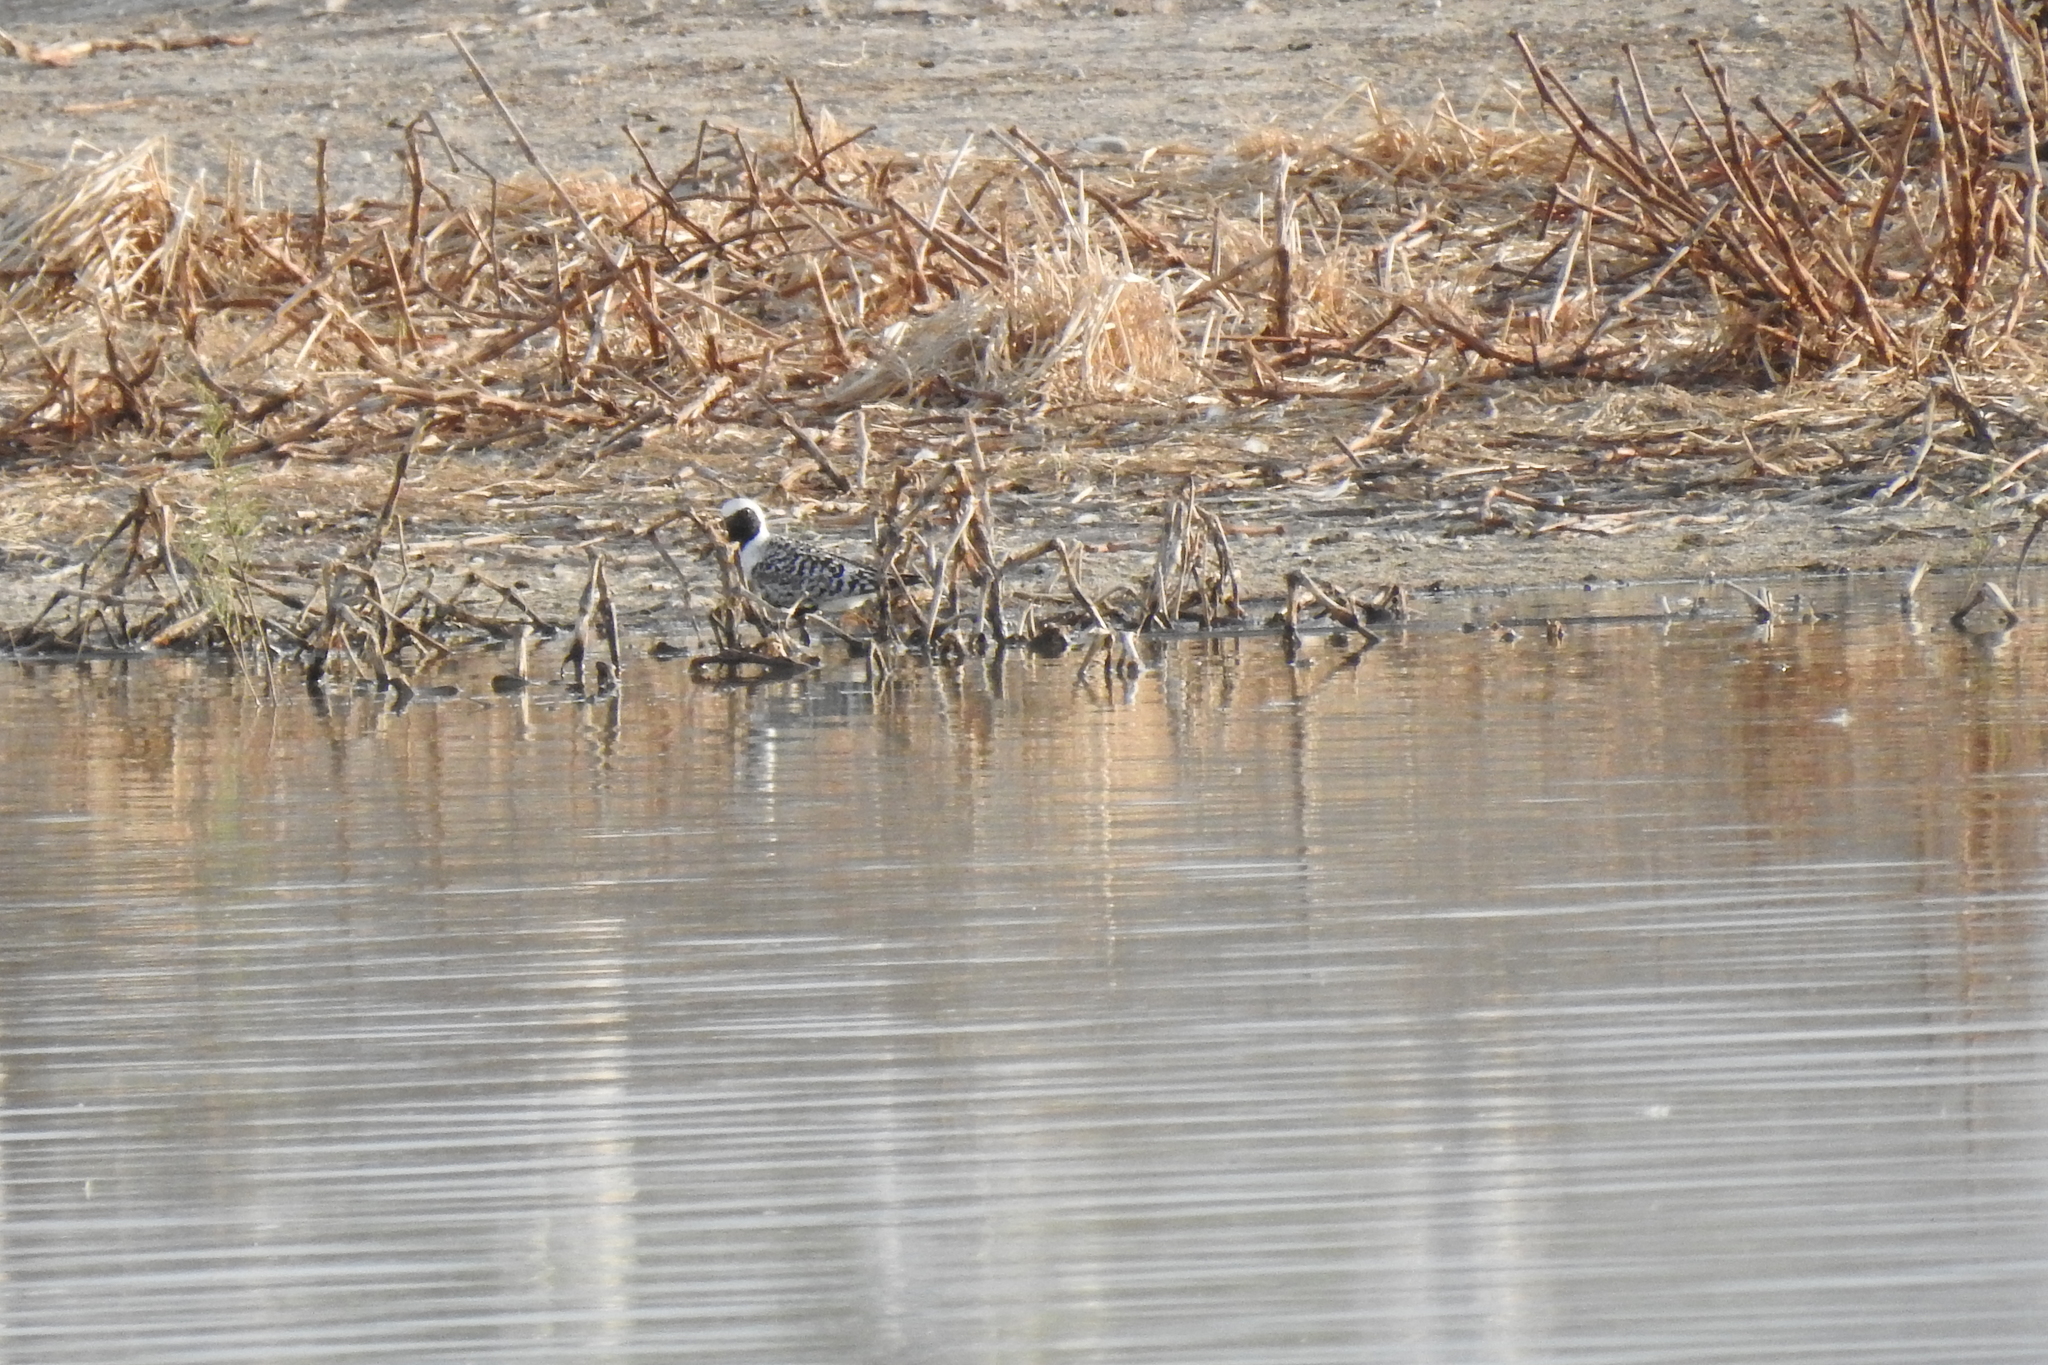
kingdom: Animalia
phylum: Chordata
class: Aves
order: Charadriiformes
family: Charadriidae
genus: Pluvialis
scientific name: Pluvialis squatarola
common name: Grey plover
